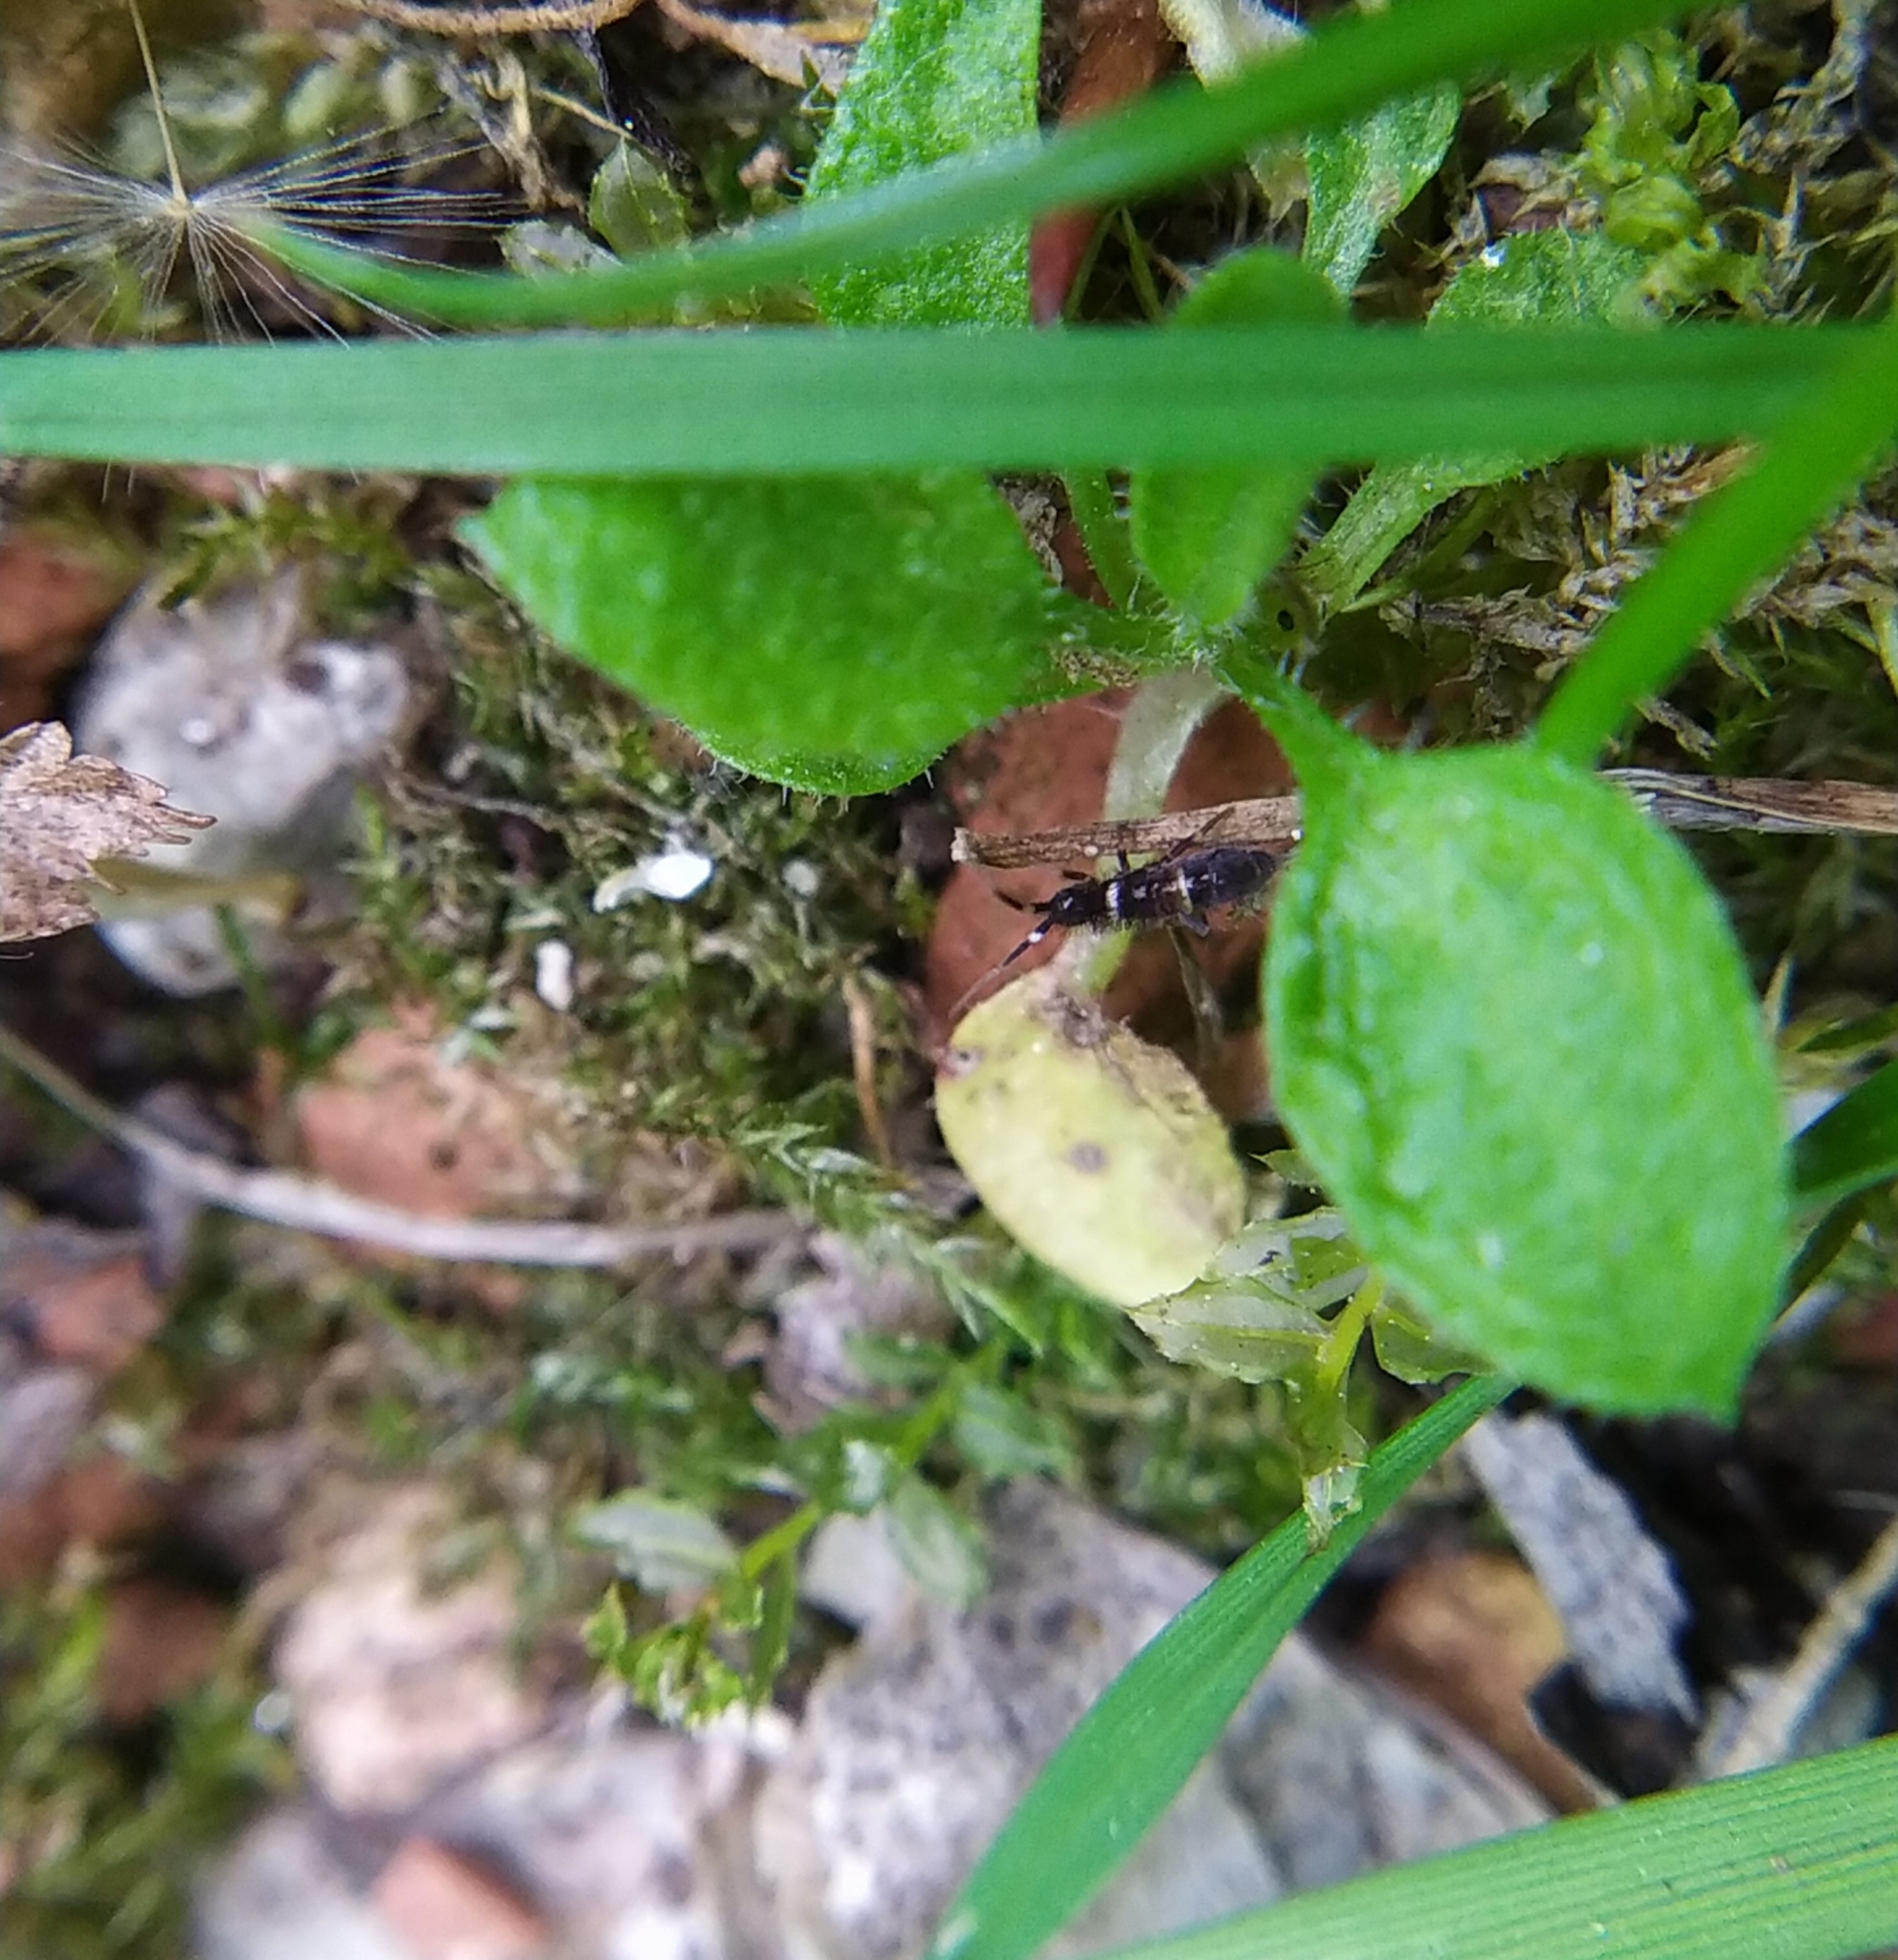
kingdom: Animalia
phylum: Arthropoda
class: Collembola
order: Entomobryomorpha
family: Orchesellidae
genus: Orchesella
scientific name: Orchesella cincta
